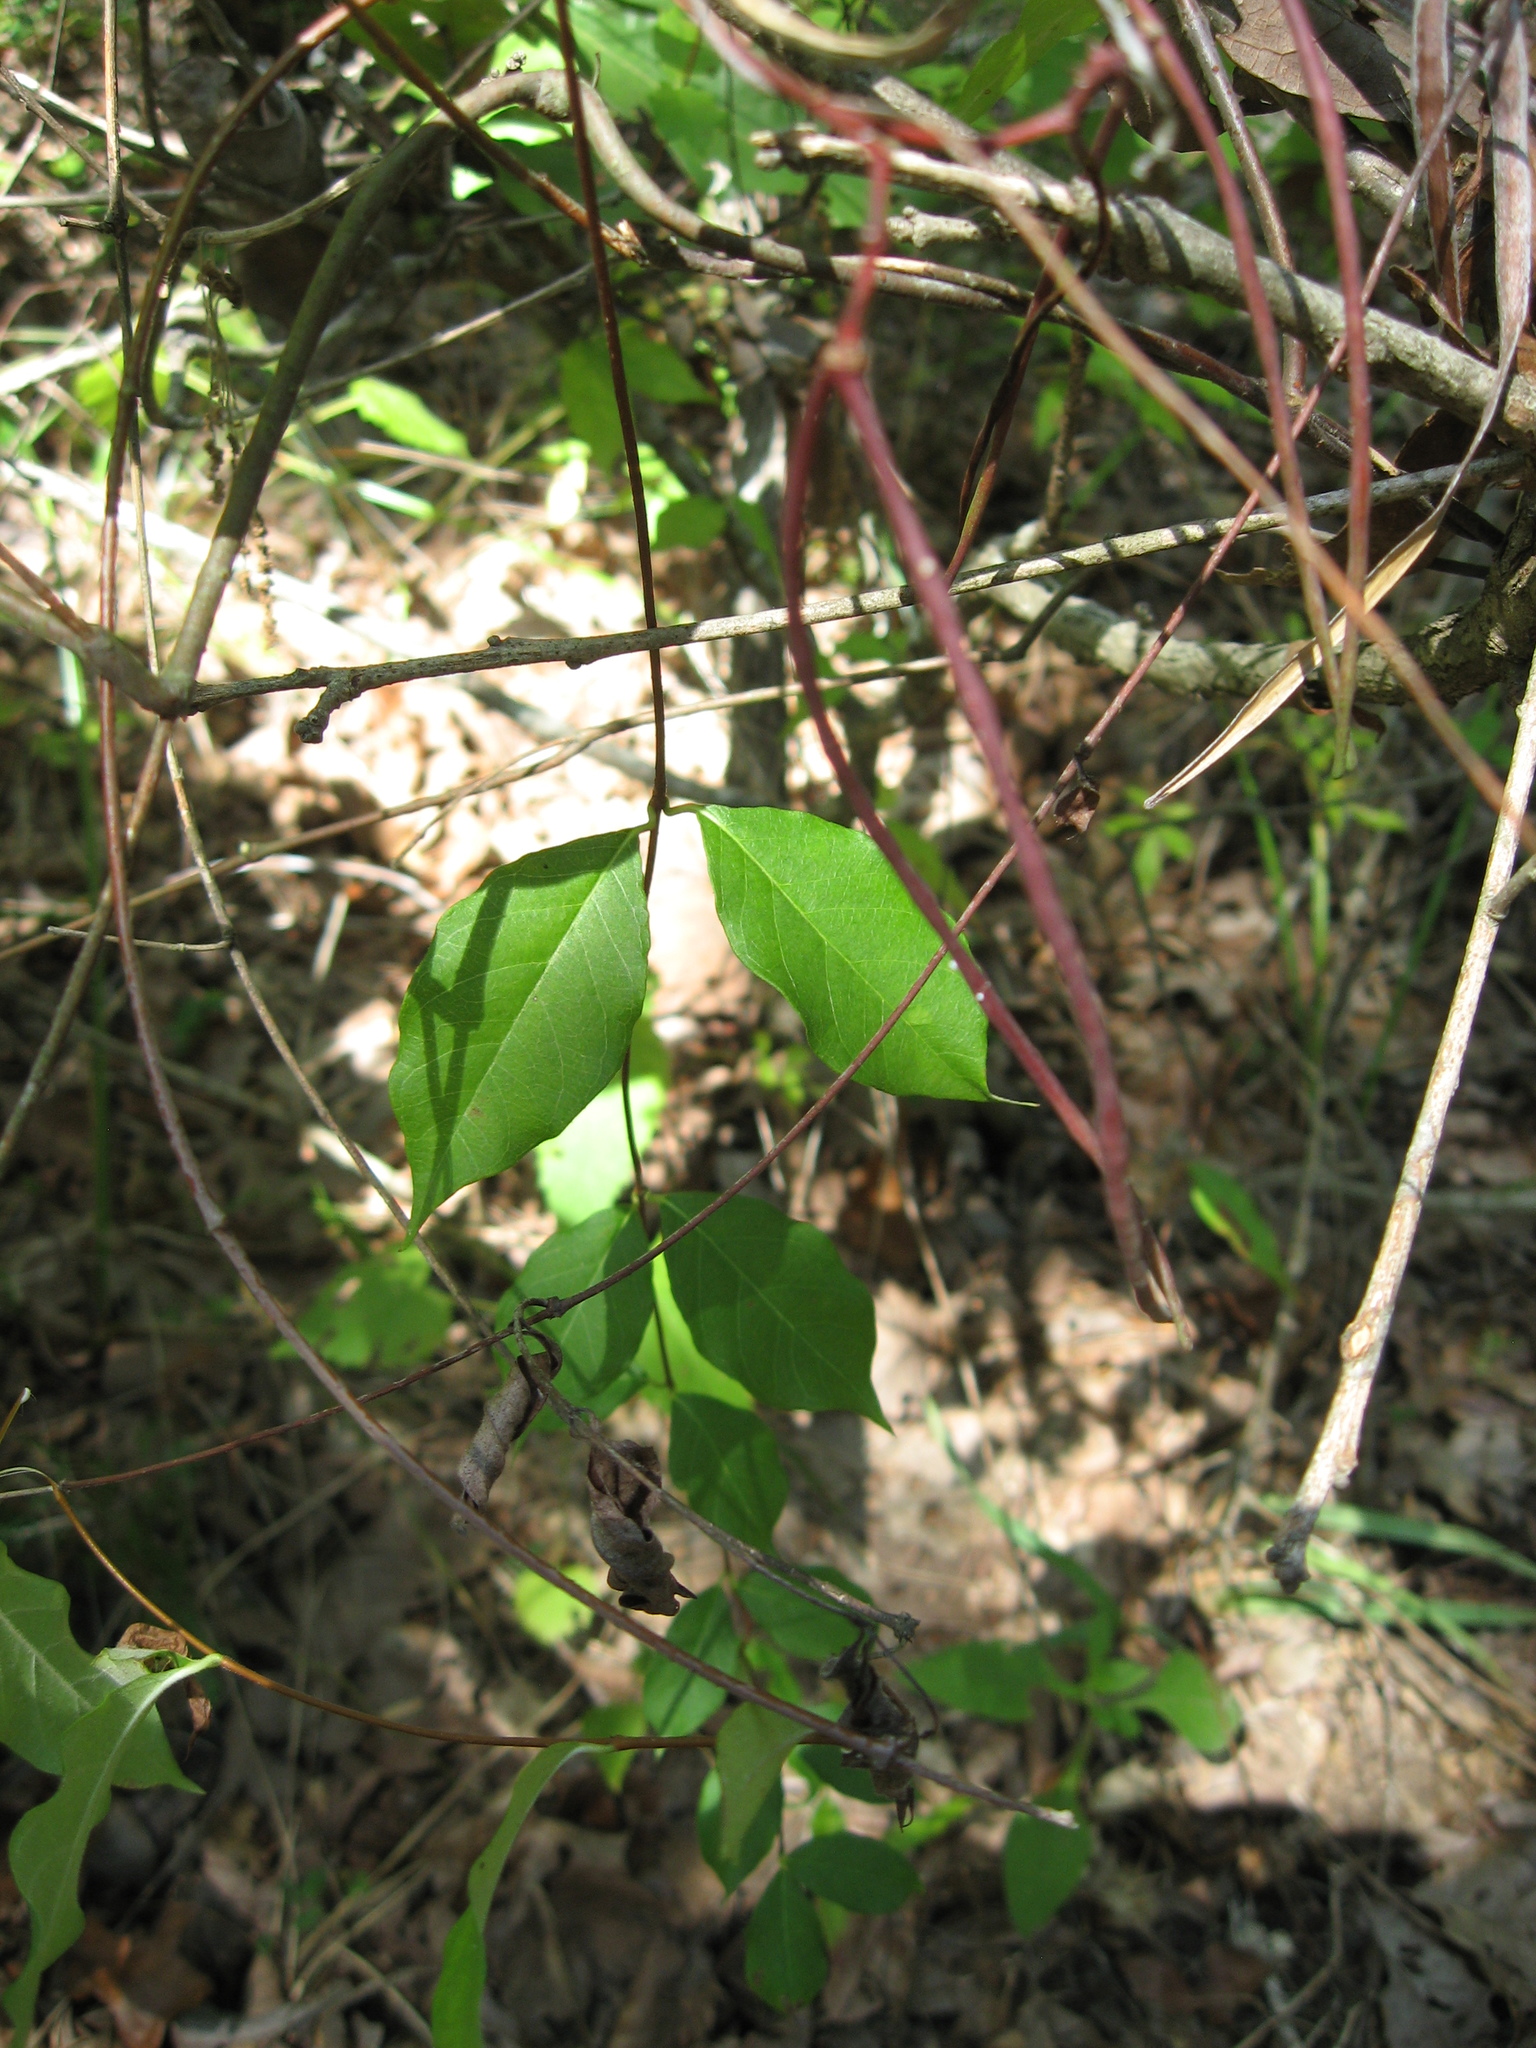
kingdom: Plantae
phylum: Tracheophyta
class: Magnoliopsida
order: Gentianales
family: Apocynaceae
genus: Thyrsanthella
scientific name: Thyrsanthella difformis
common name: Climbing dogbane
